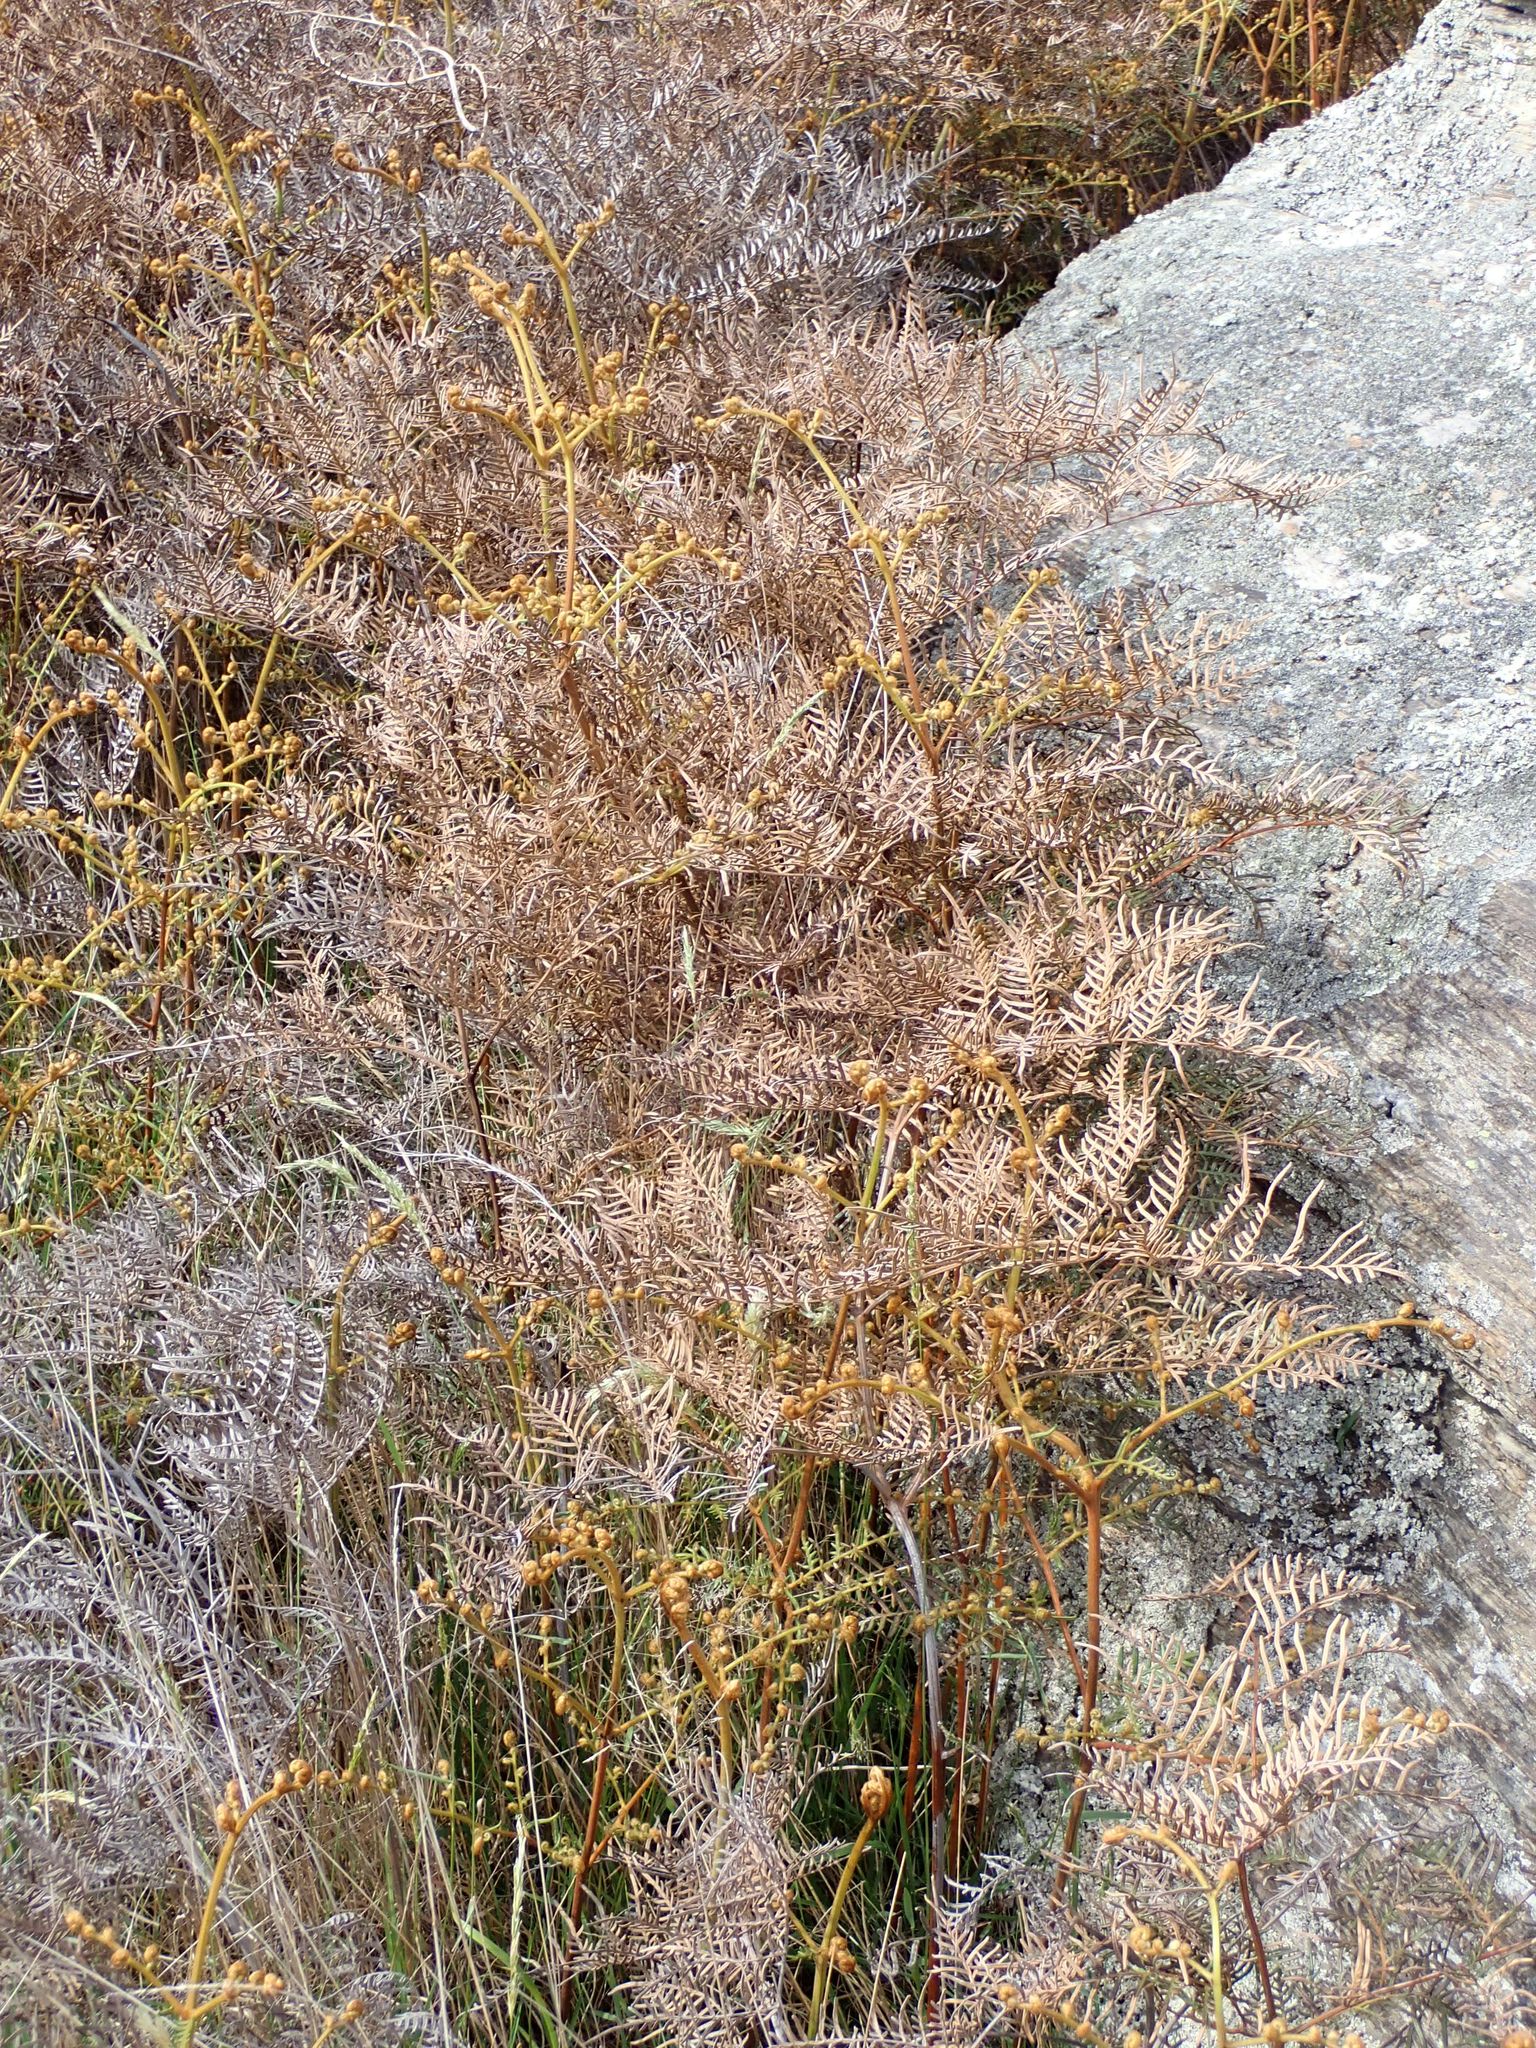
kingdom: Plantae
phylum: Tracheophyta
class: Polypodiopsida
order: Polypodiales
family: Dennstaedtiaceae
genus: Pteridium
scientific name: Pteridium esculentum
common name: Bracken fern
